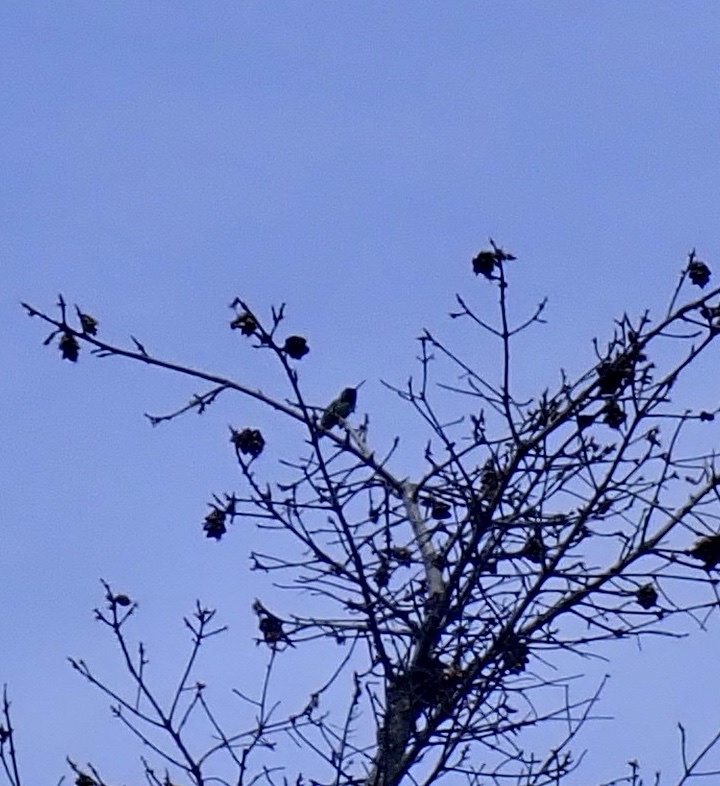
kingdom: Animalia
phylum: Chordata
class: Aves
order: Apodiformes
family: Trochilidae
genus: Calypte
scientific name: Calypte anna
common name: Anna's hummingbird
